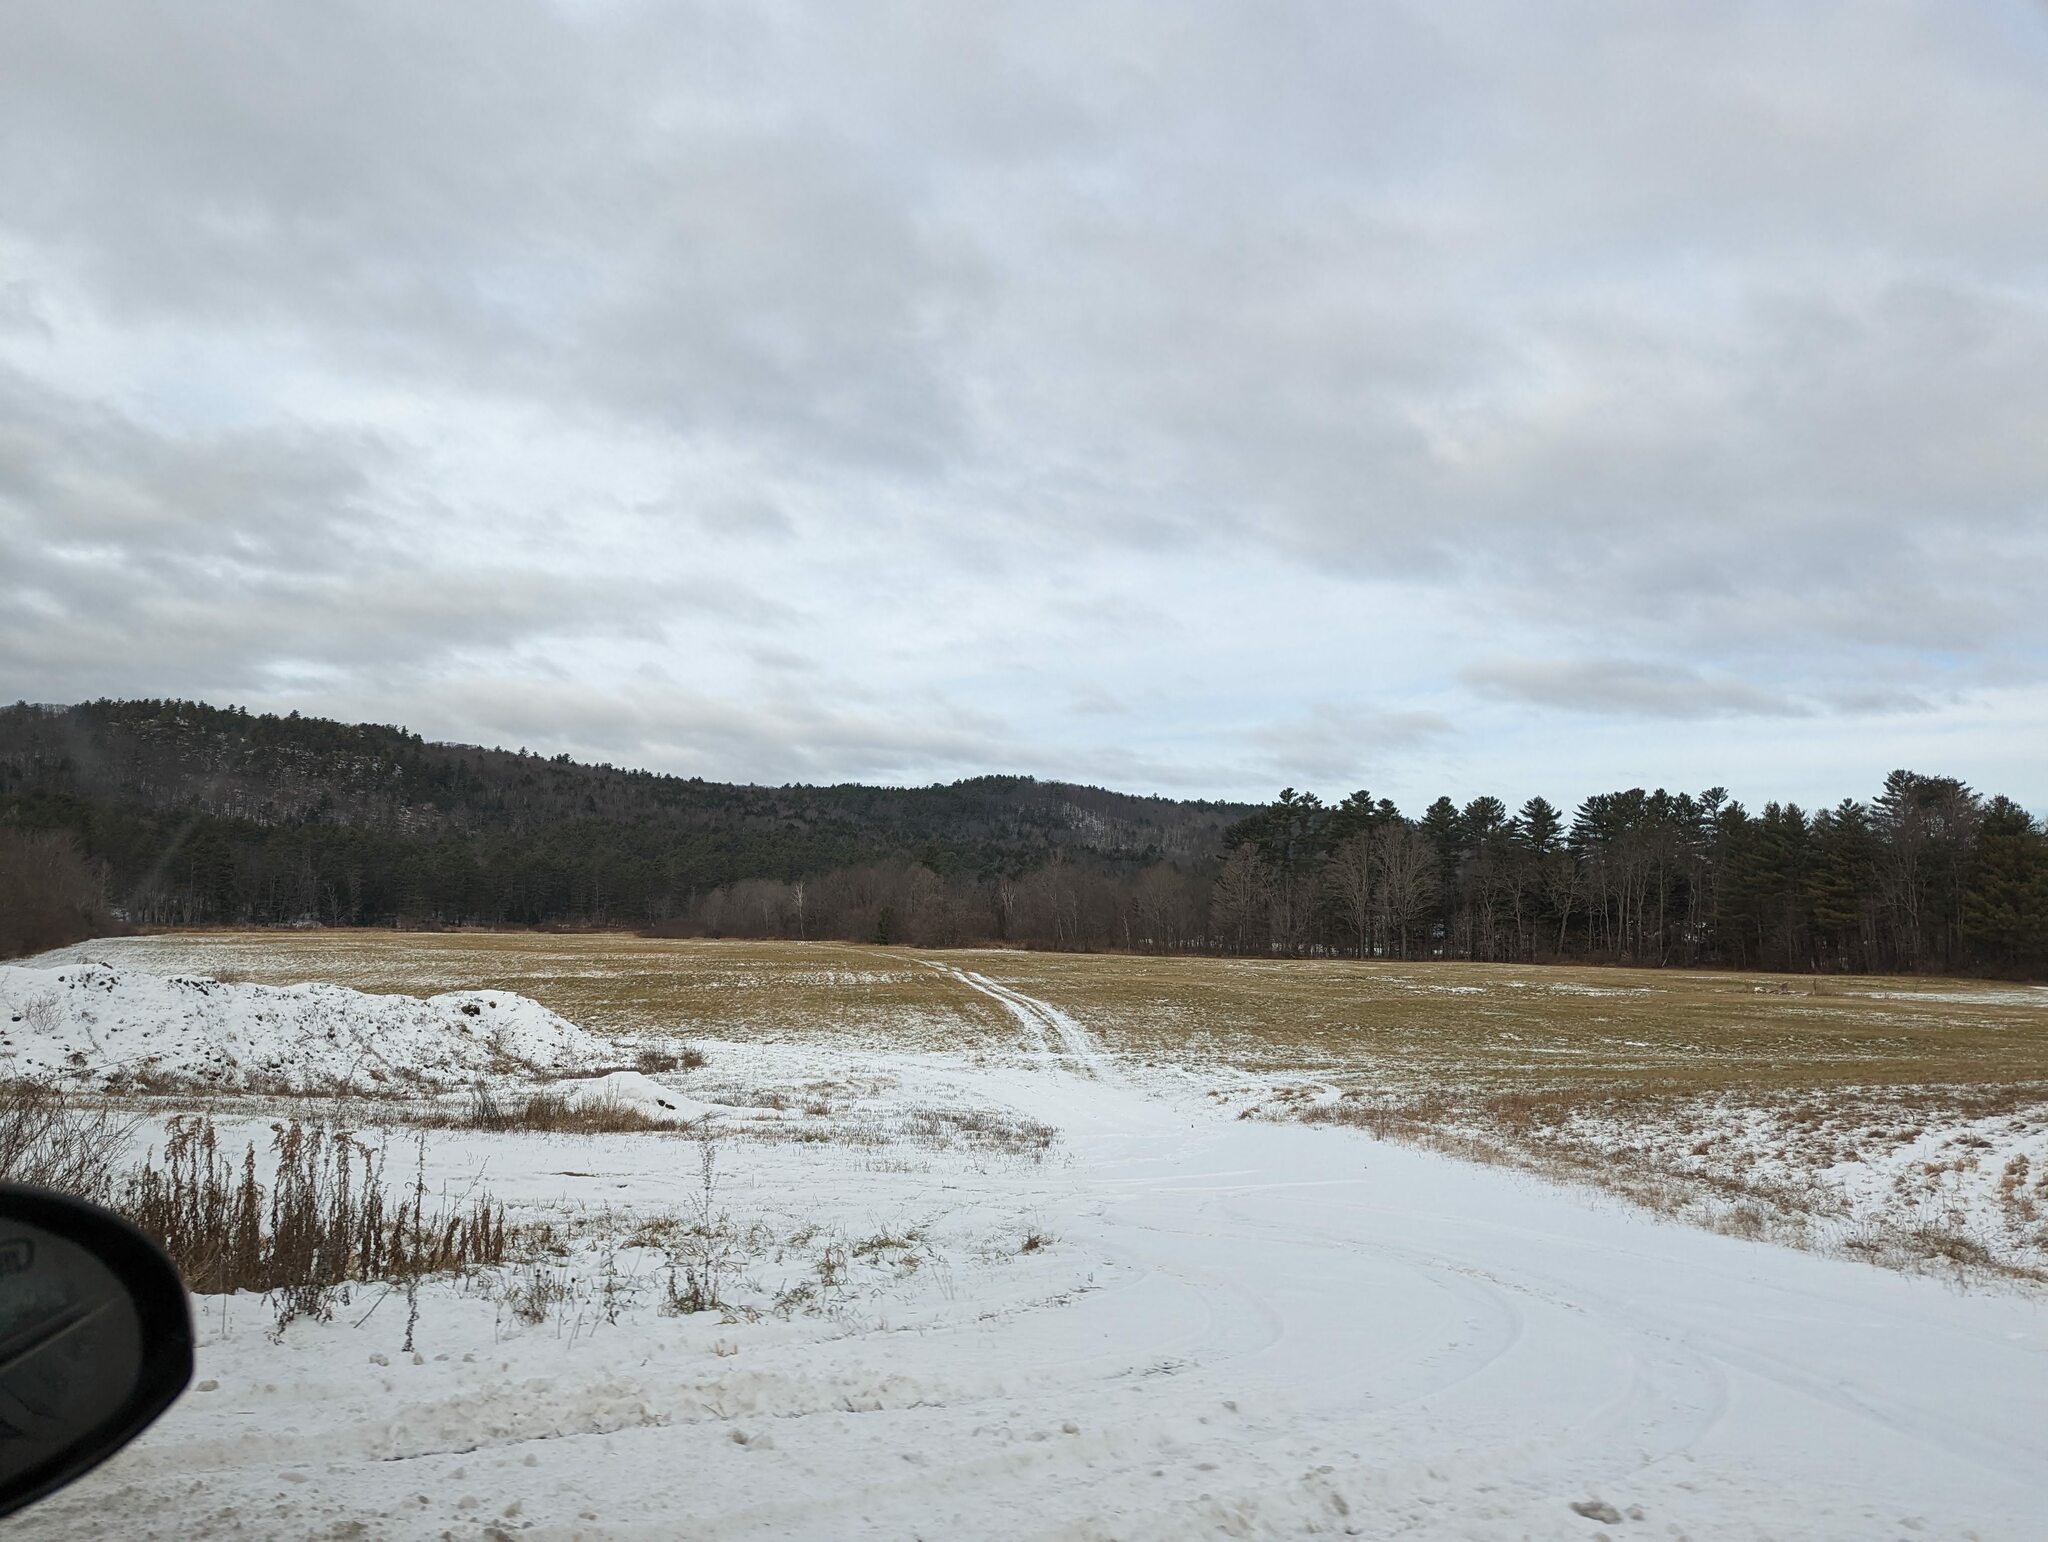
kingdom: Plantae
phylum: Tracheophyta
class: Pinopsida
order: Pinales
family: Pinaceae
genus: Pinus
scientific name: Pinus strobus
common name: Weymouth pine
